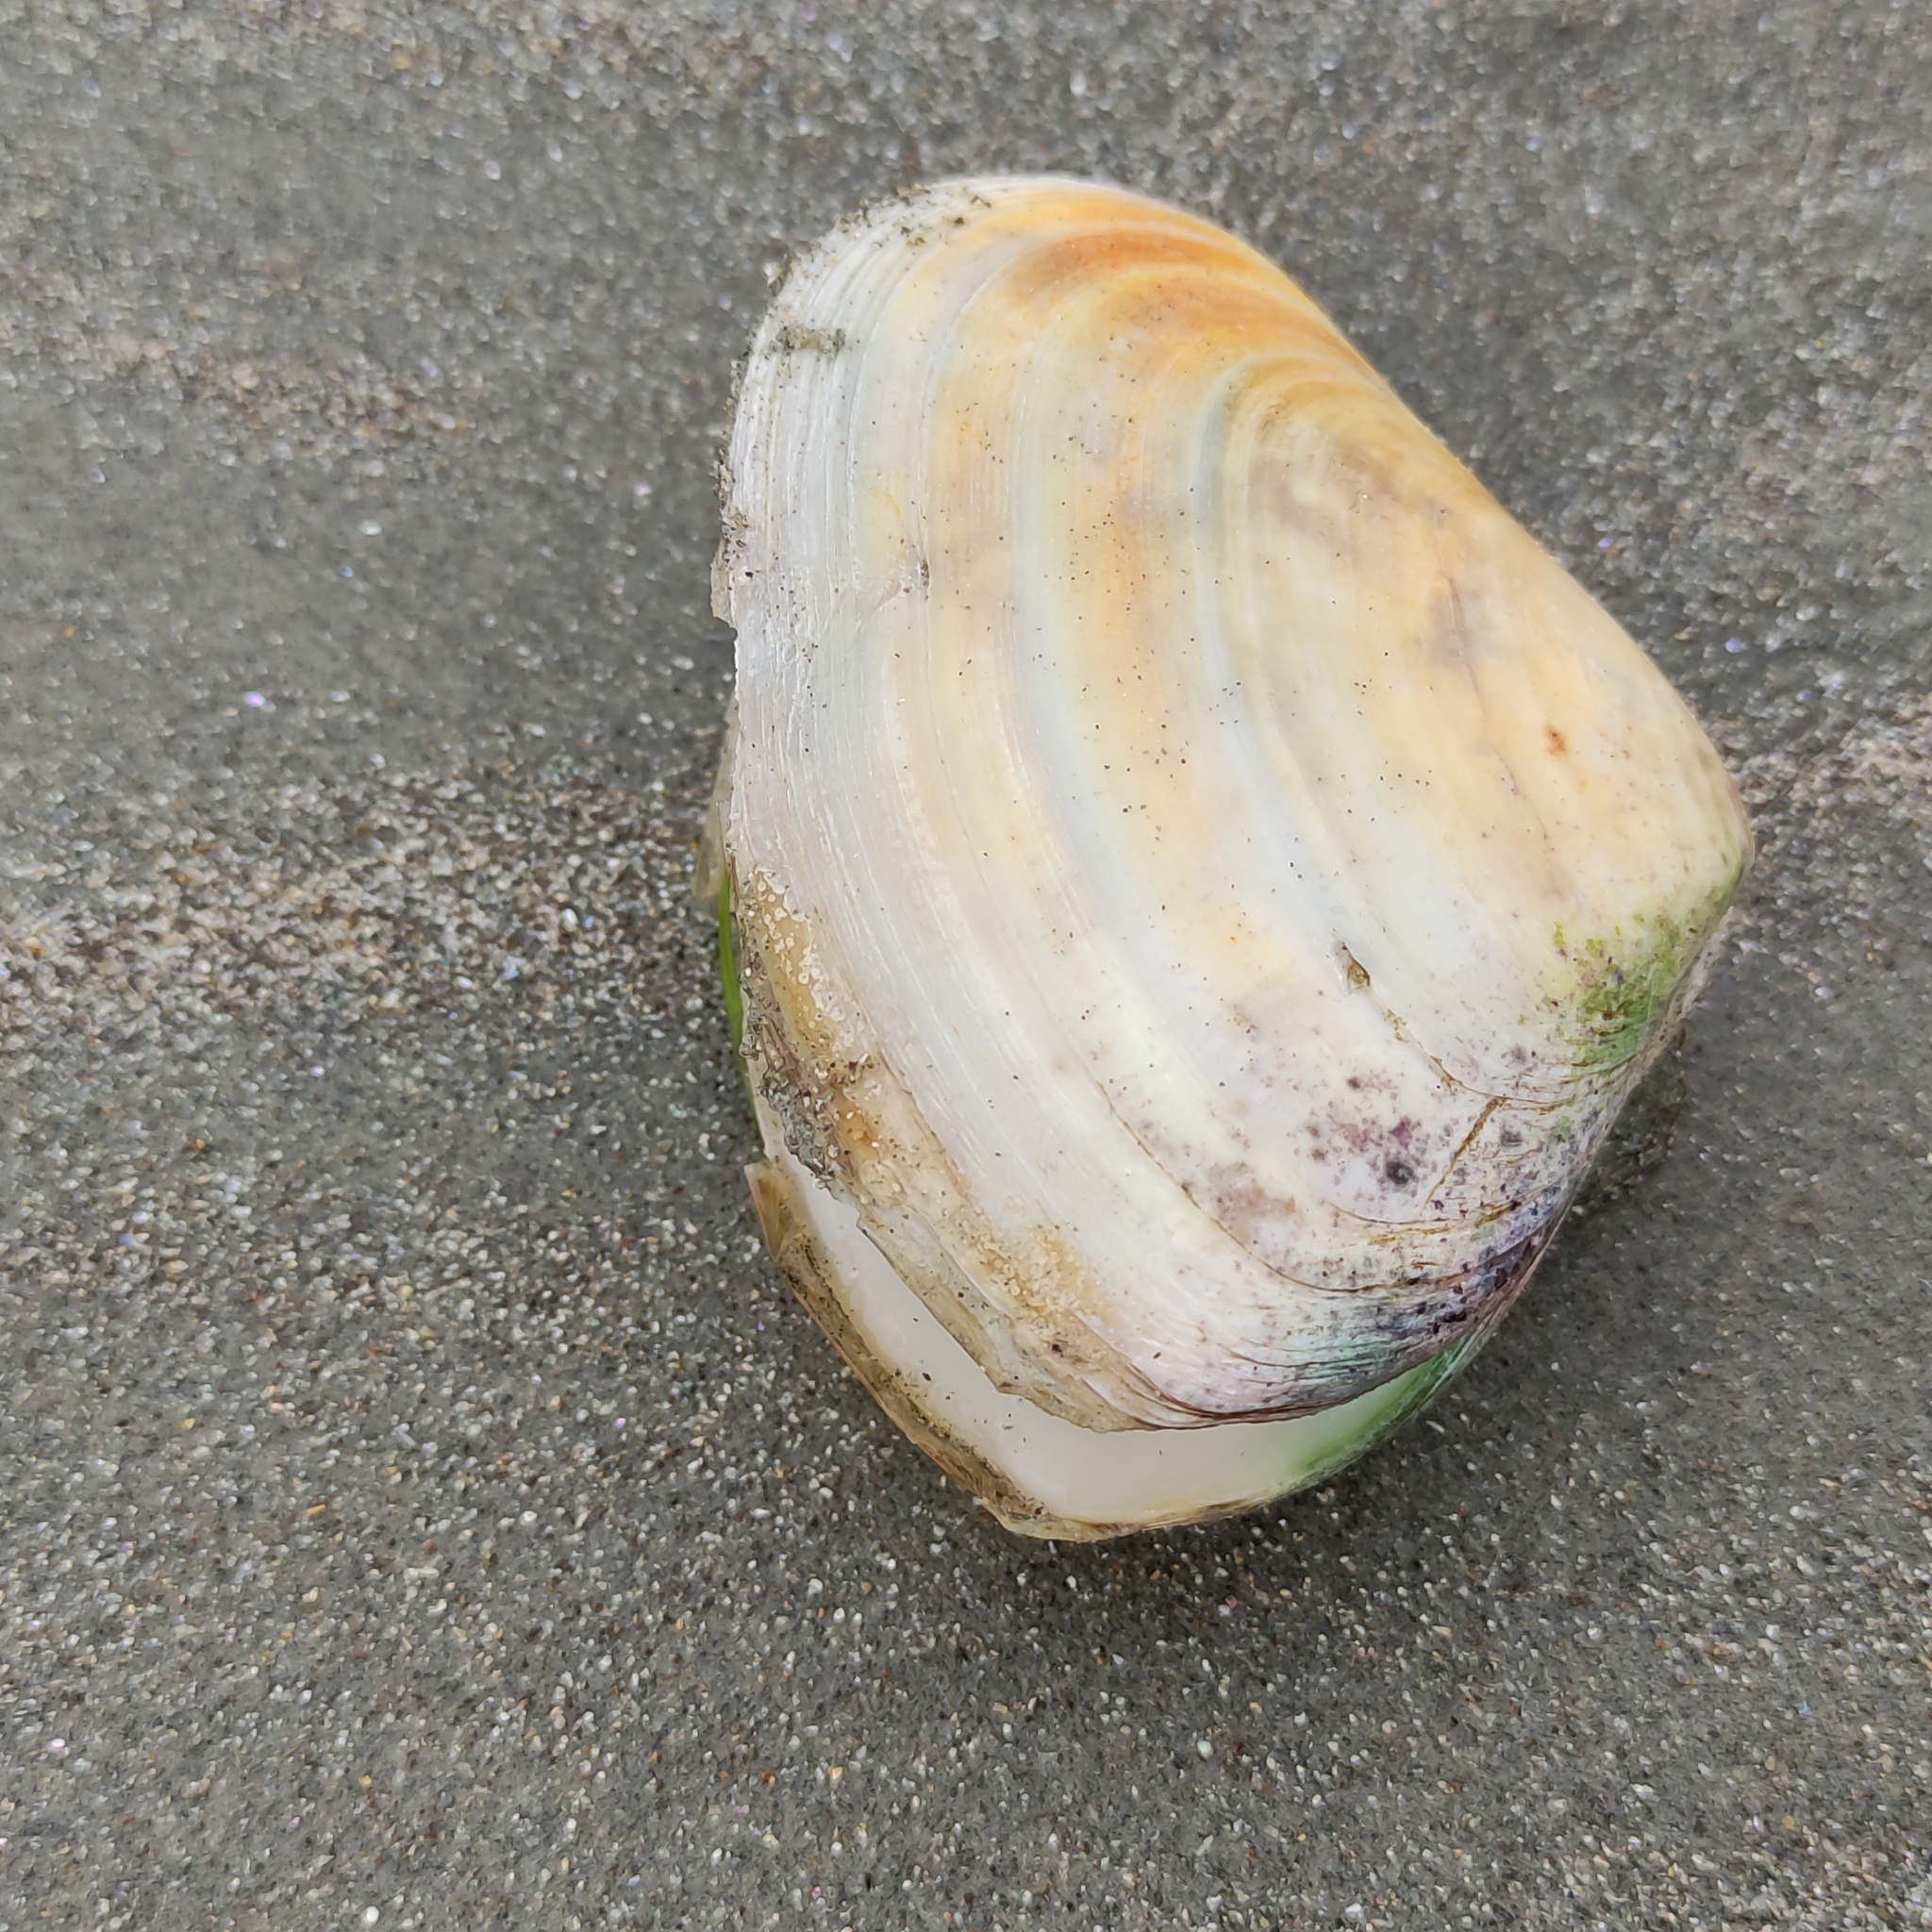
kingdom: Animalia
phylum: Mollusca
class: Bivalvia
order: Venerida
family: Mesodesmatidae
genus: Paphies
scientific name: Paphies donacina
